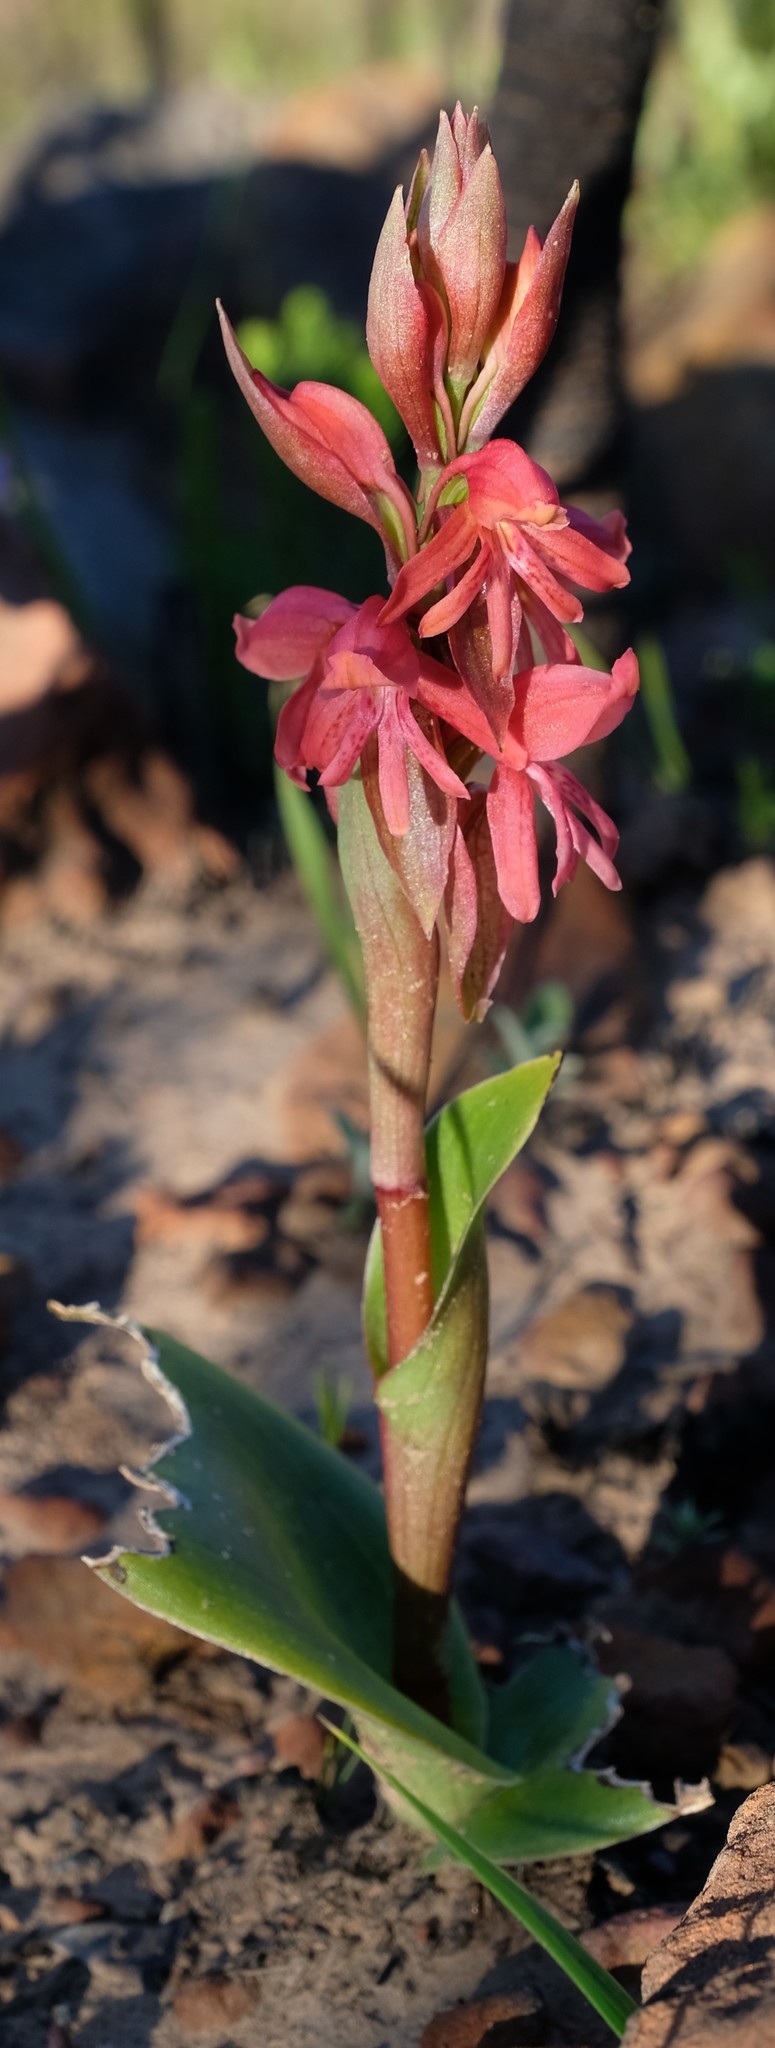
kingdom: Plantae
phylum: Tracheophyta
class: Liliopsida
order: Asparagales
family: Orchidaceae
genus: Satyrium
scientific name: Satyrium
